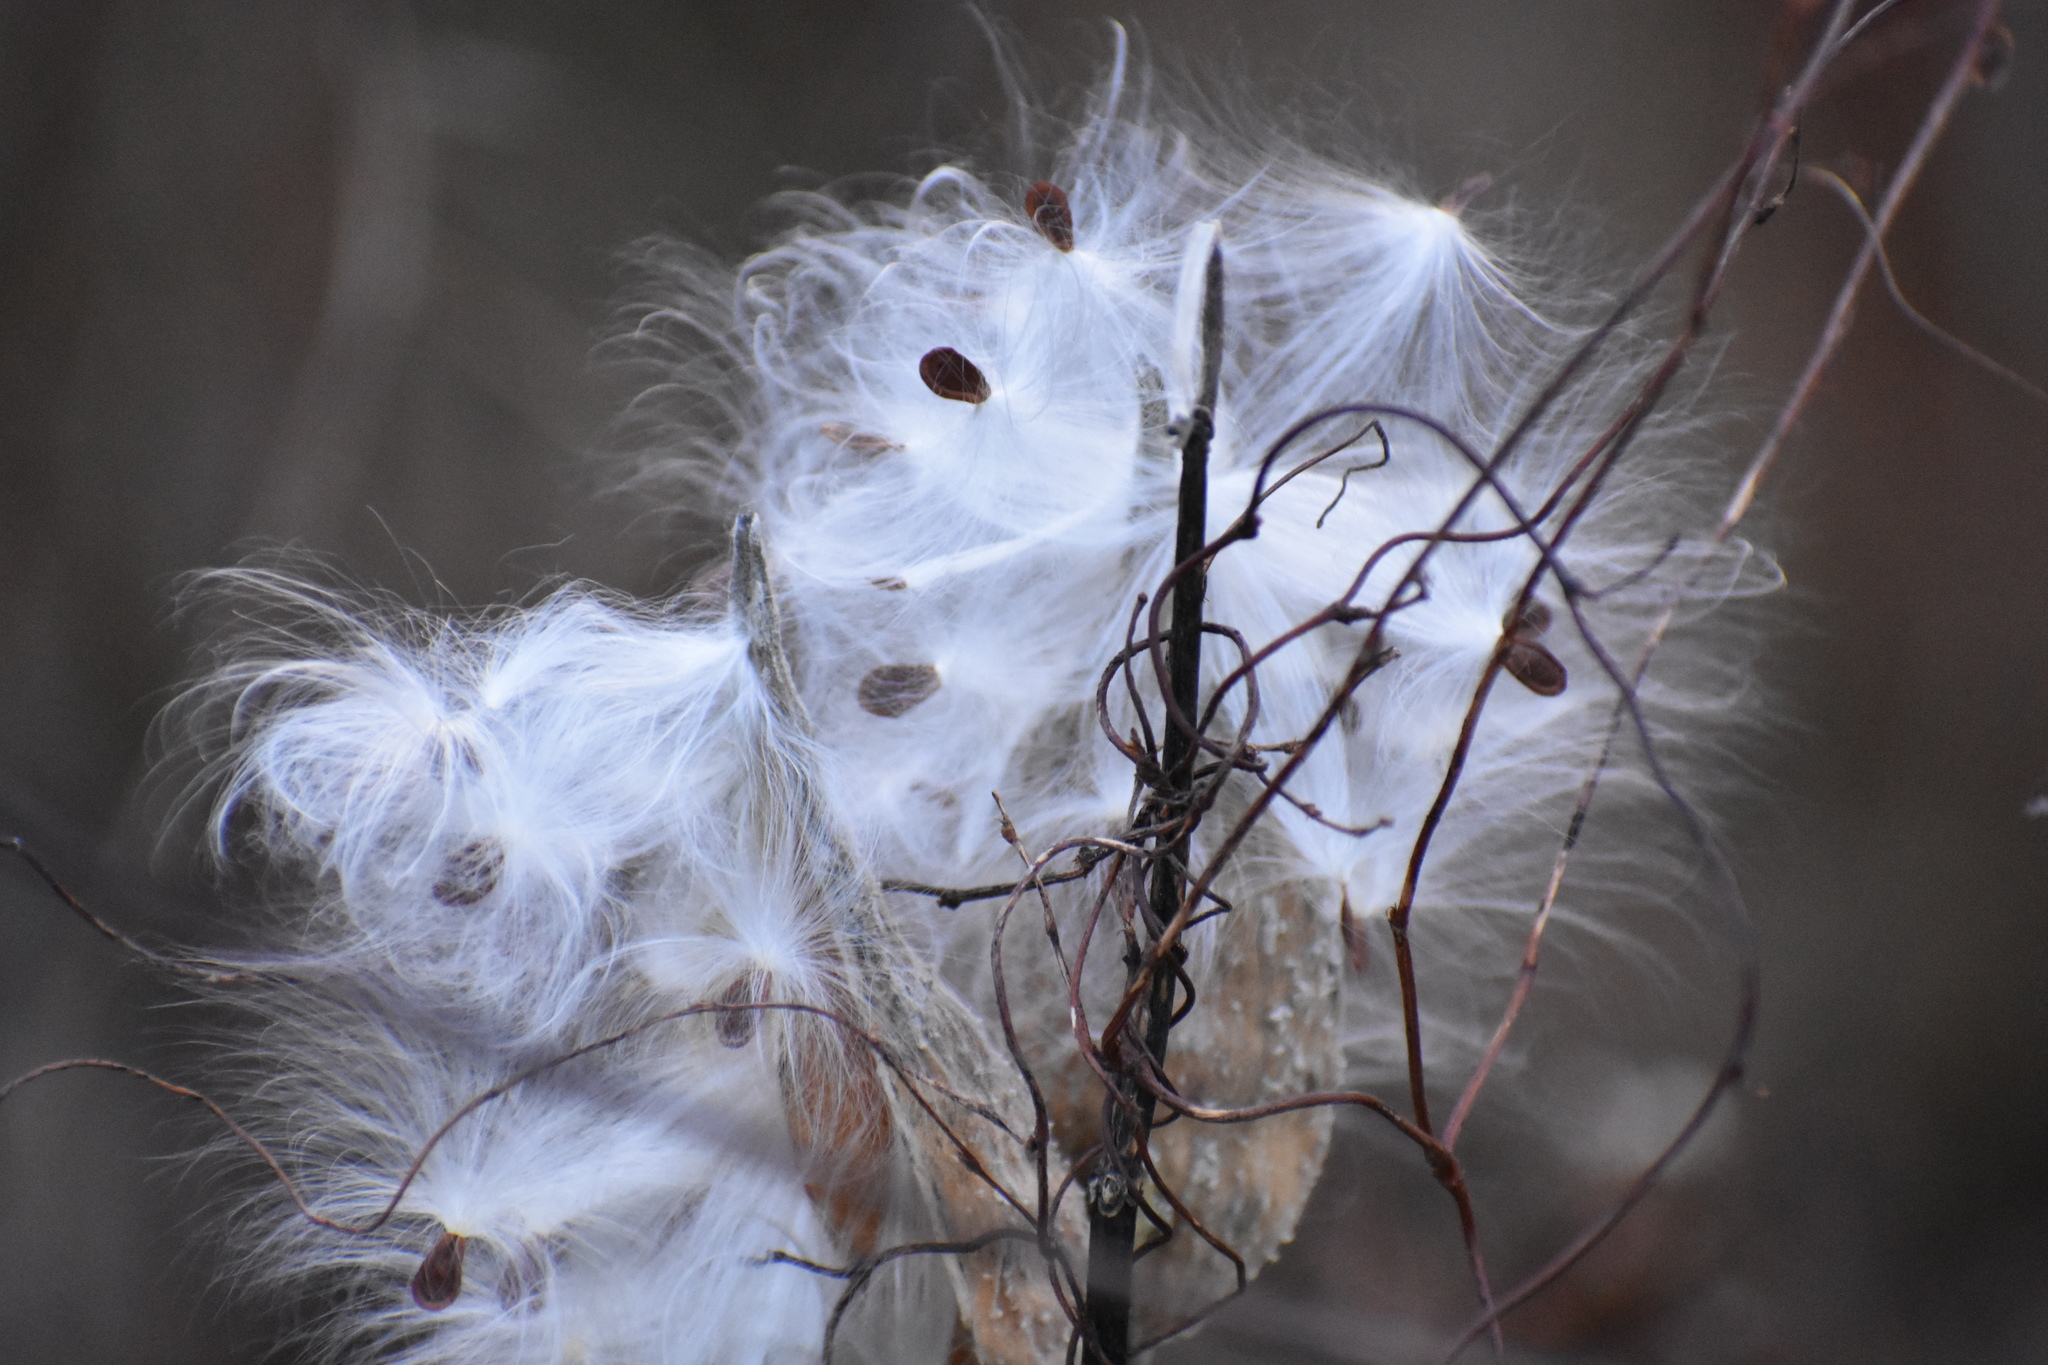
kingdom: Plantae
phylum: Tracheophyta
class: Magnoliopsida
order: Gentianales
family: Apocynaceae
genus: Asclepias
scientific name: Asclepias syriaca
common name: Common milkweed
